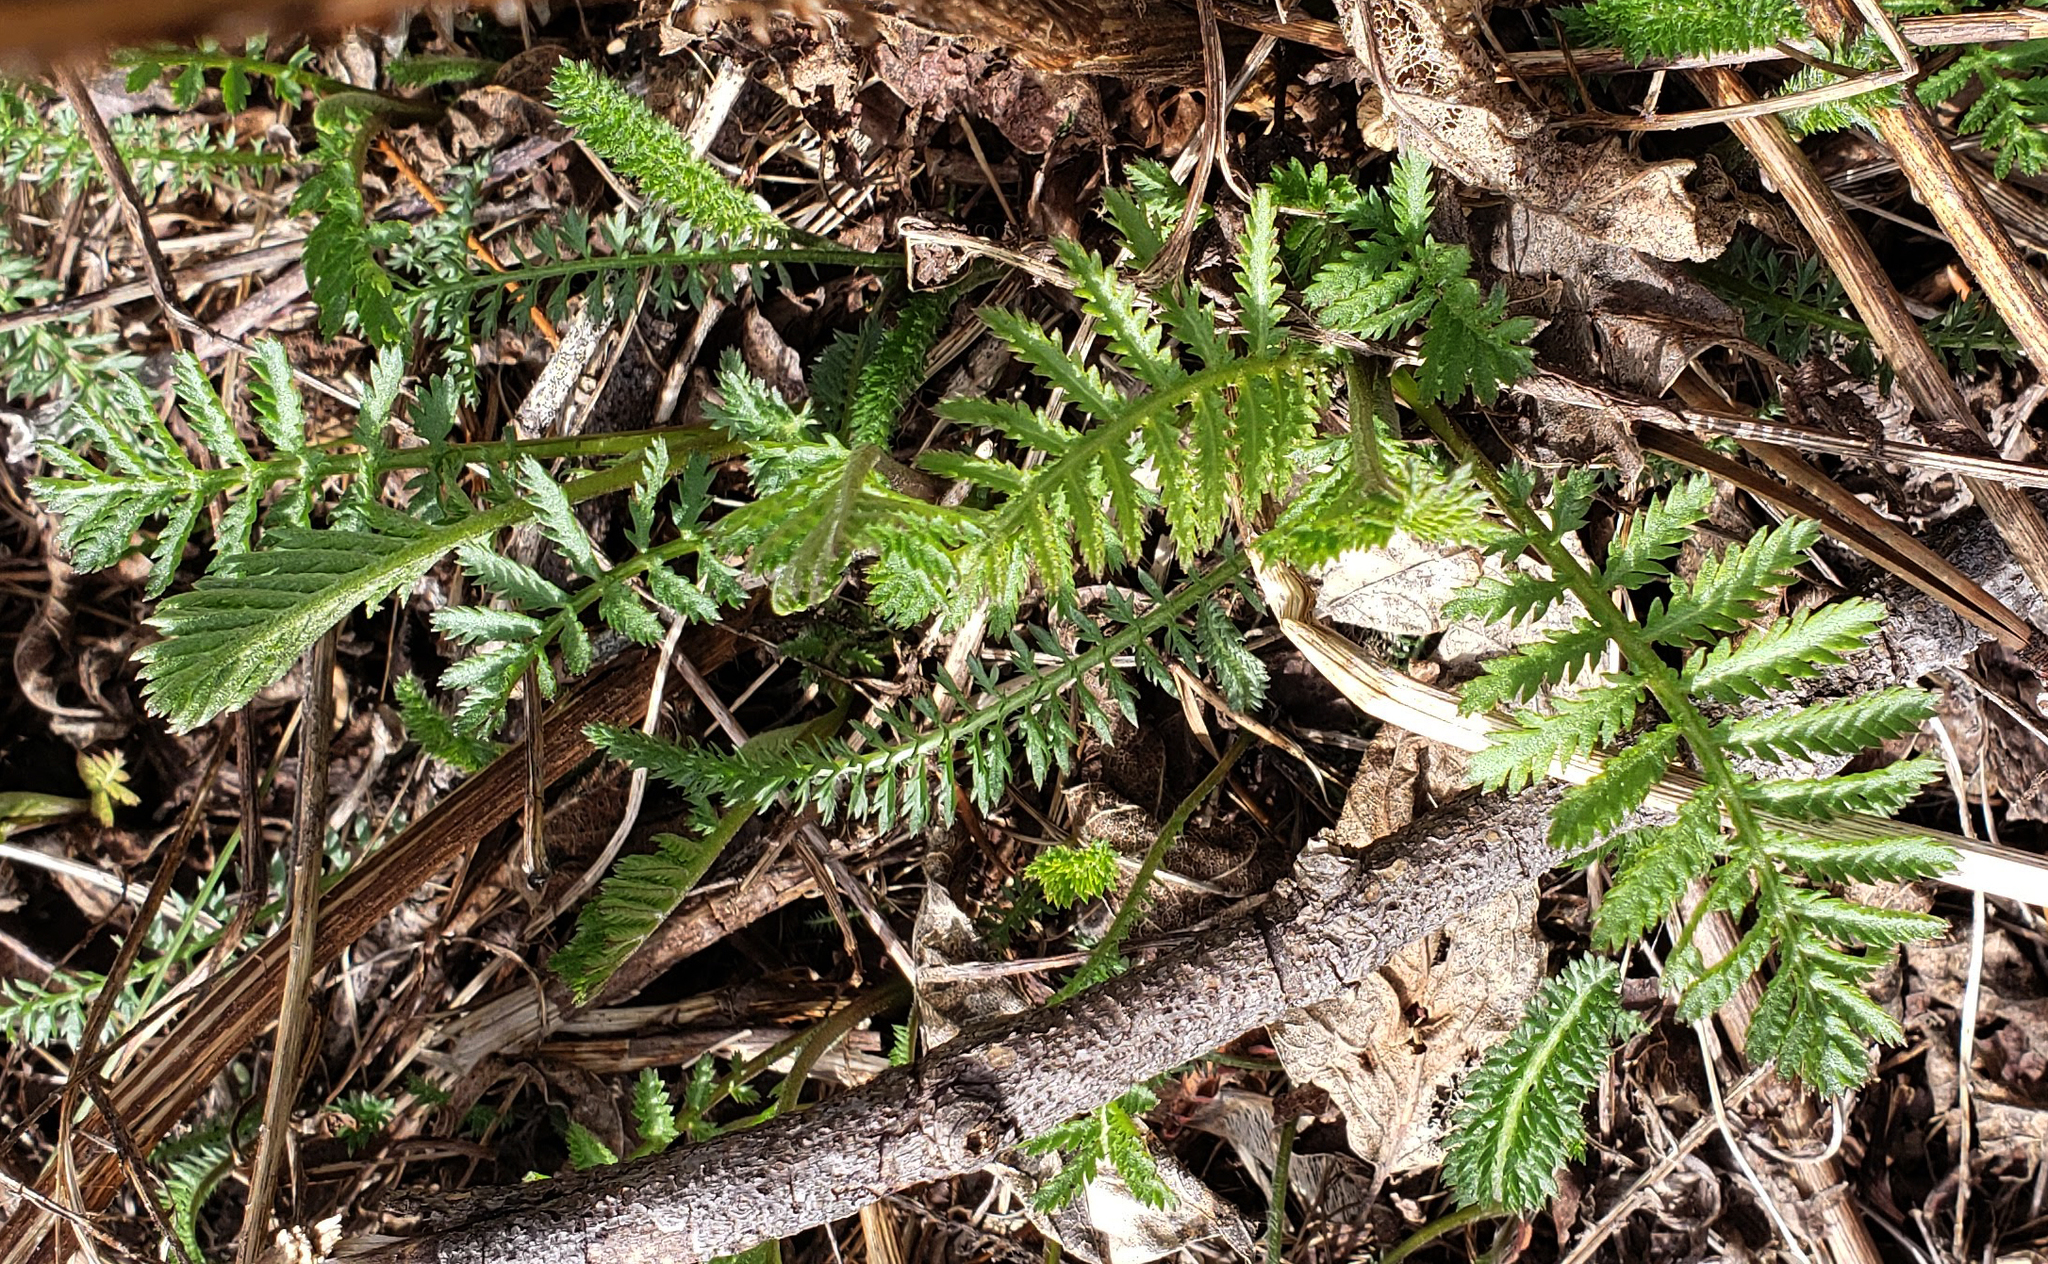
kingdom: Plantae
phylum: Tracheophyta
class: Magnoliopsida
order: Asterales
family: Asteraceae
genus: Tanacetum
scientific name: Tanacetum vulgare
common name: Common tansy
